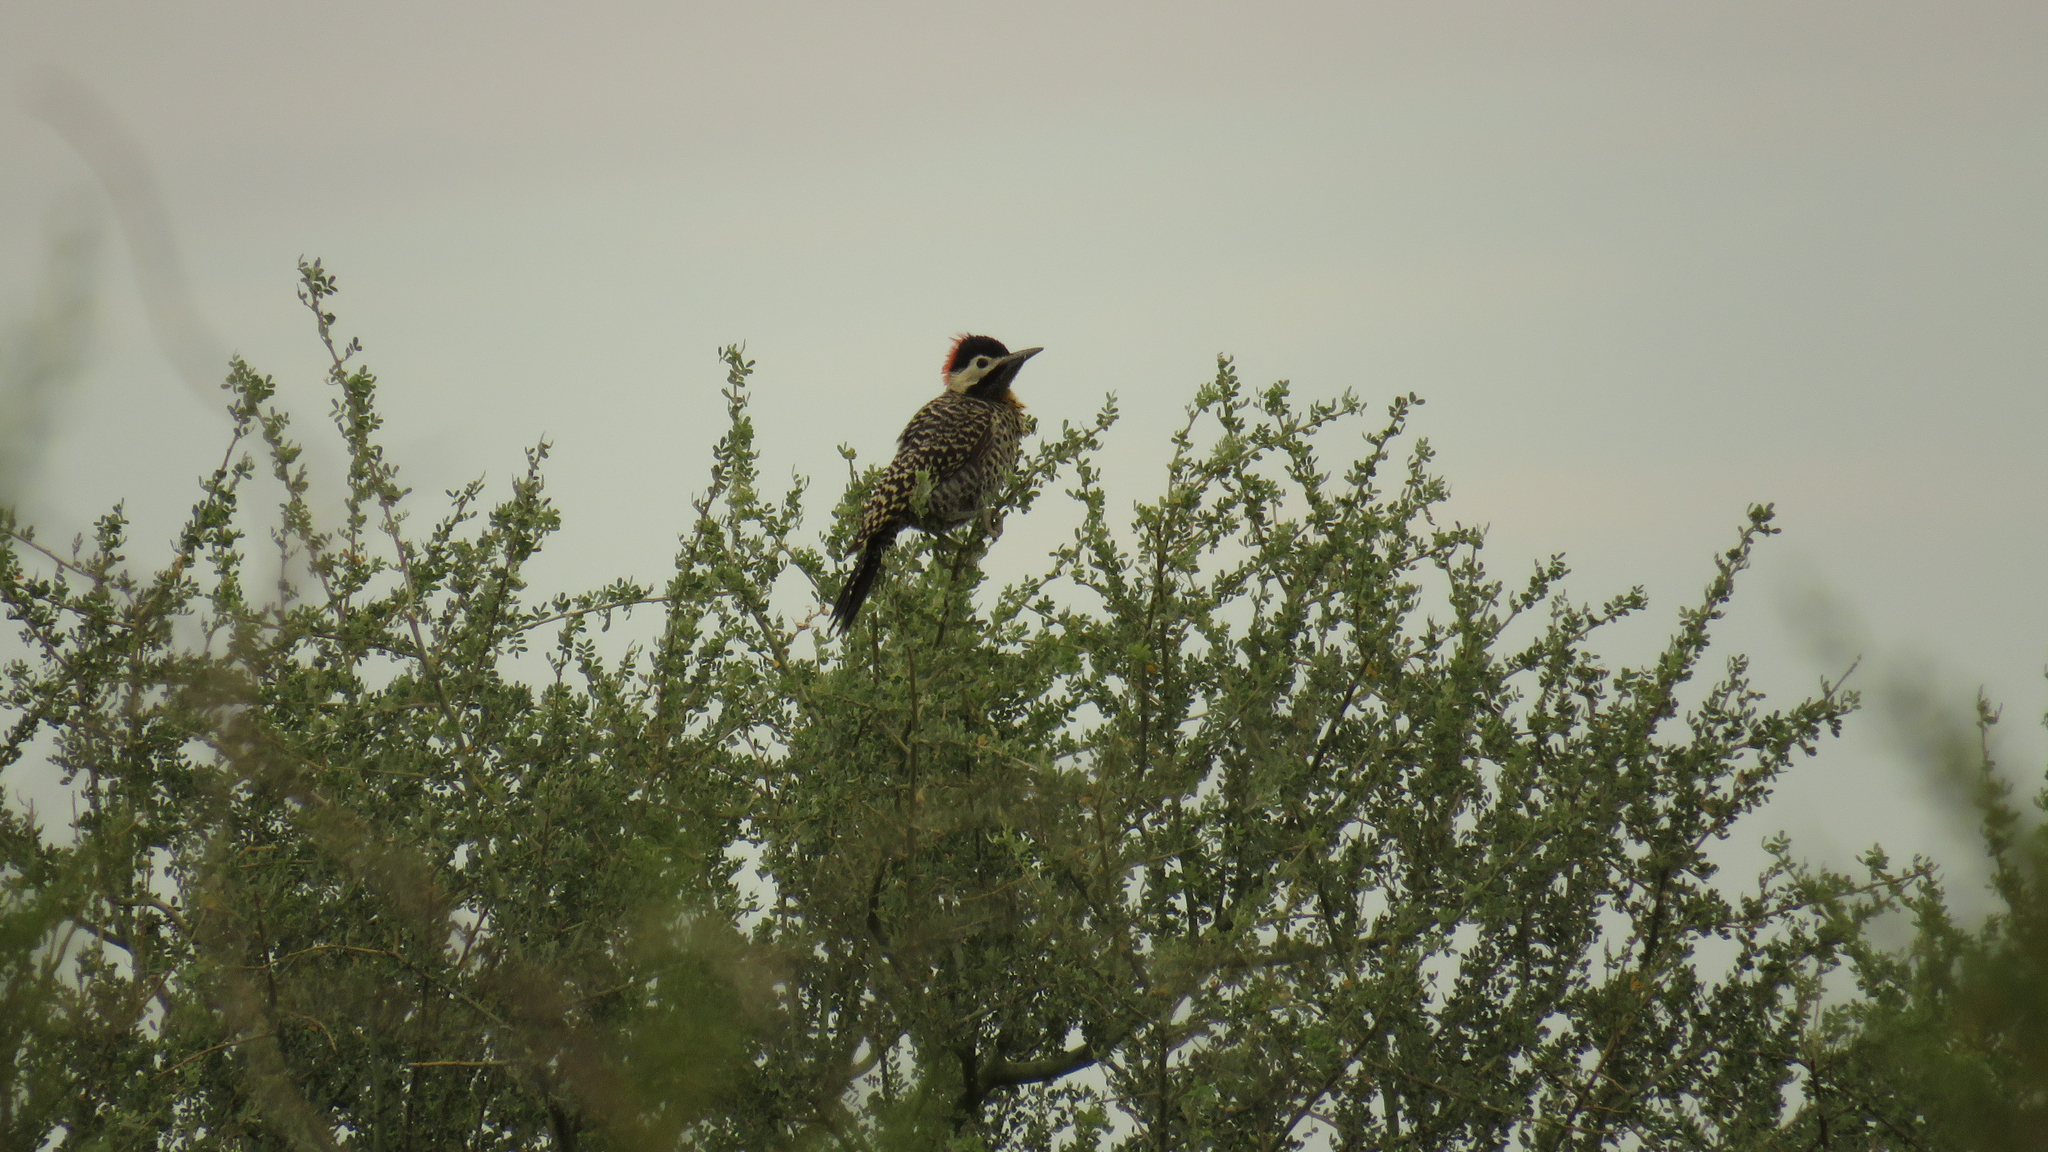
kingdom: Animalia
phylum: Chordata
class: Aves
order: Piciformes
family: Picidae
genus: Colaptes
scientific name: Colaptes melanochloros
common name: Green-barred woodpecker
